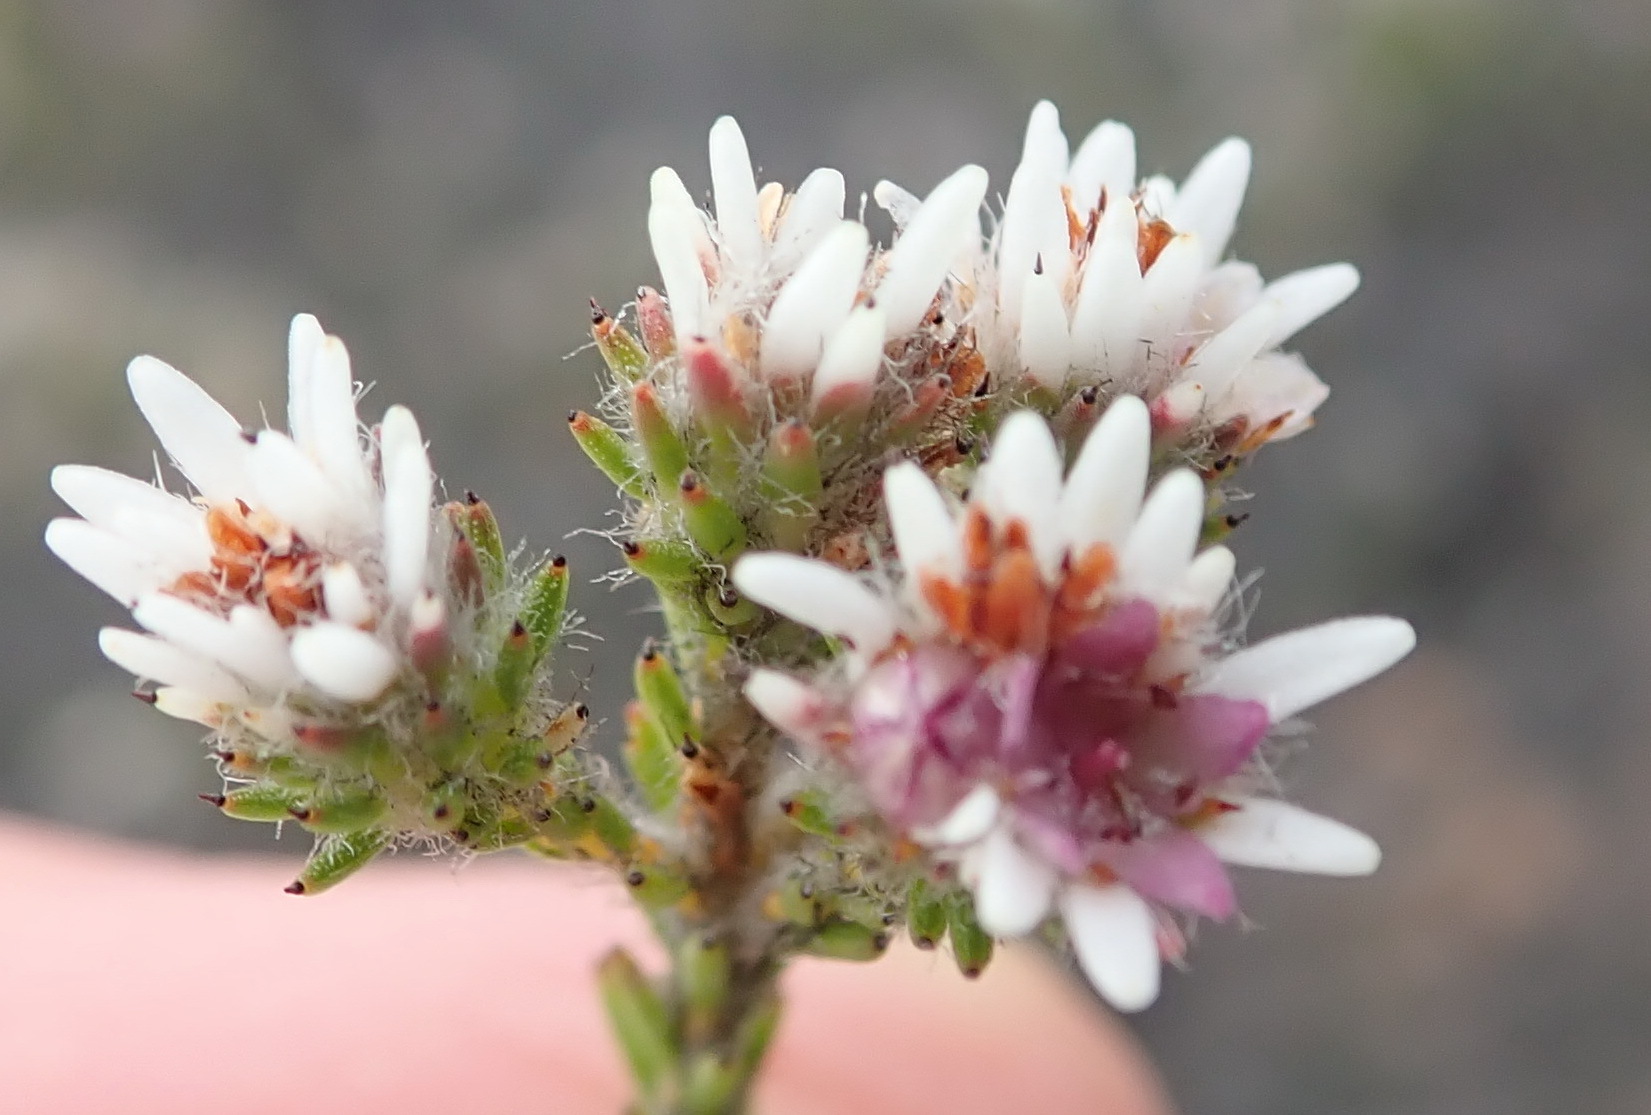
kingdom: Plantae
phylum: Tracheophyta
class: Magnoliopsida
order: Bruniales
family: Bruniaceae
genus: Staavia
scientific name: Staavia radiata
